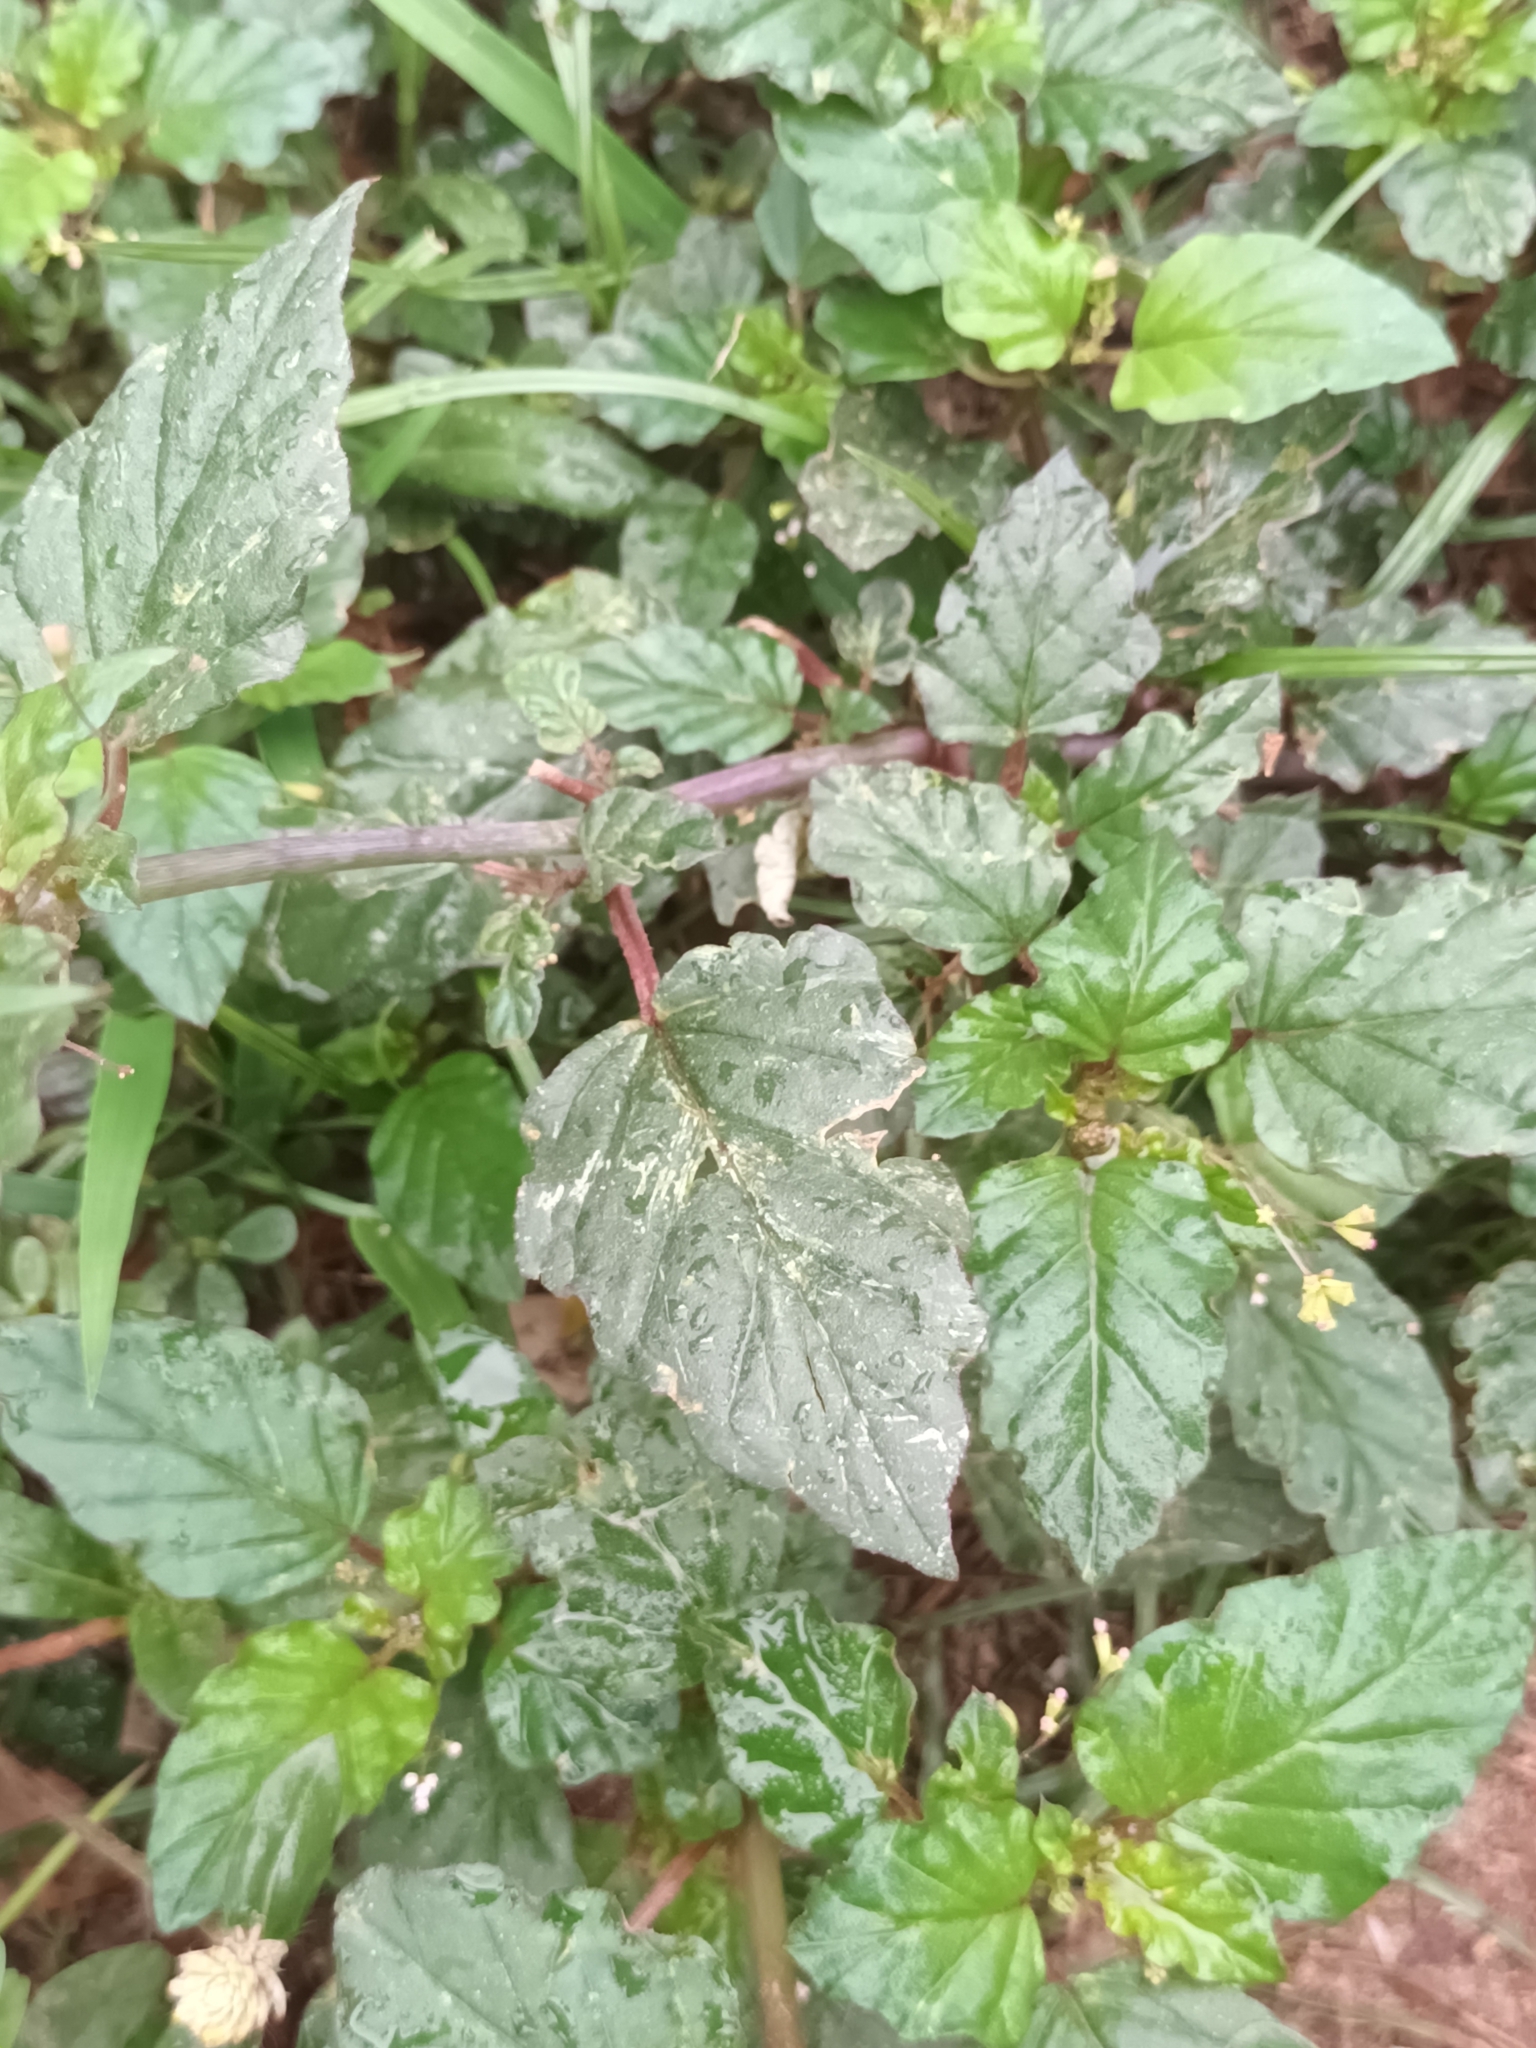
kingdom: Plantae
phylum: Tracheophyta
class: Magnoliopsida
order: Caryophyllales
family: Nyctaginaceae
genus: Boerhavia
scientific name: Boerhavia erecta
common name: Erect spiderling
